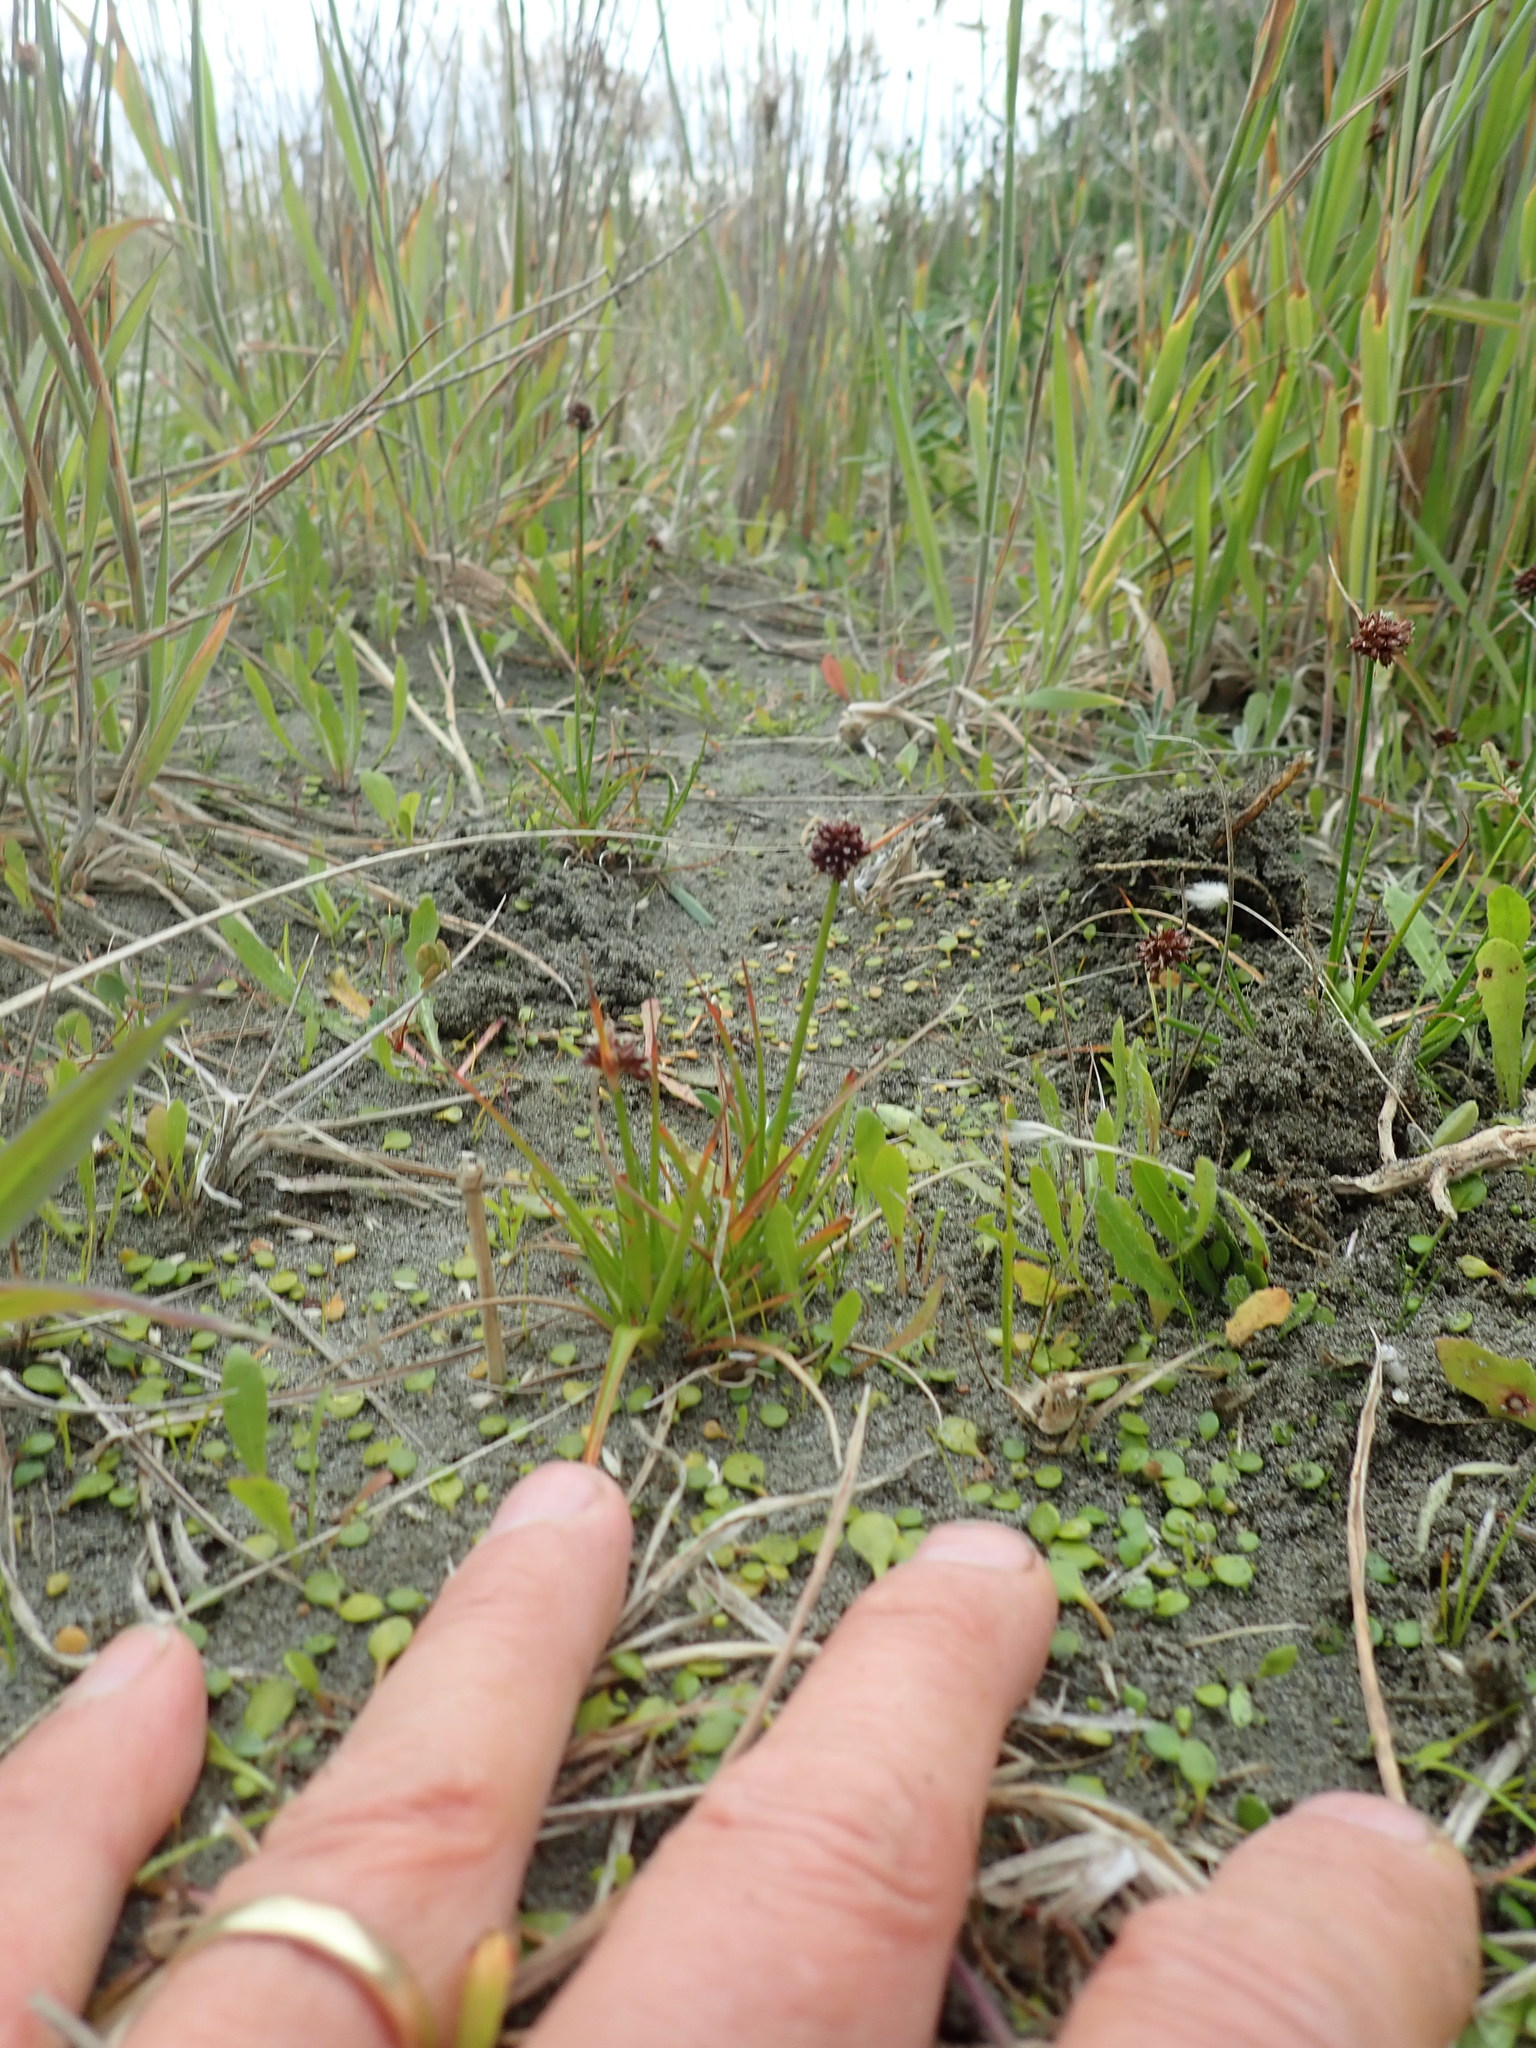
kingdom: Plantae
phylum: Tracheophyta
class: Liliopsida
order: Poales
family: Juncaceae
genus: Juncus
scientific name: Juncus caespiticius
